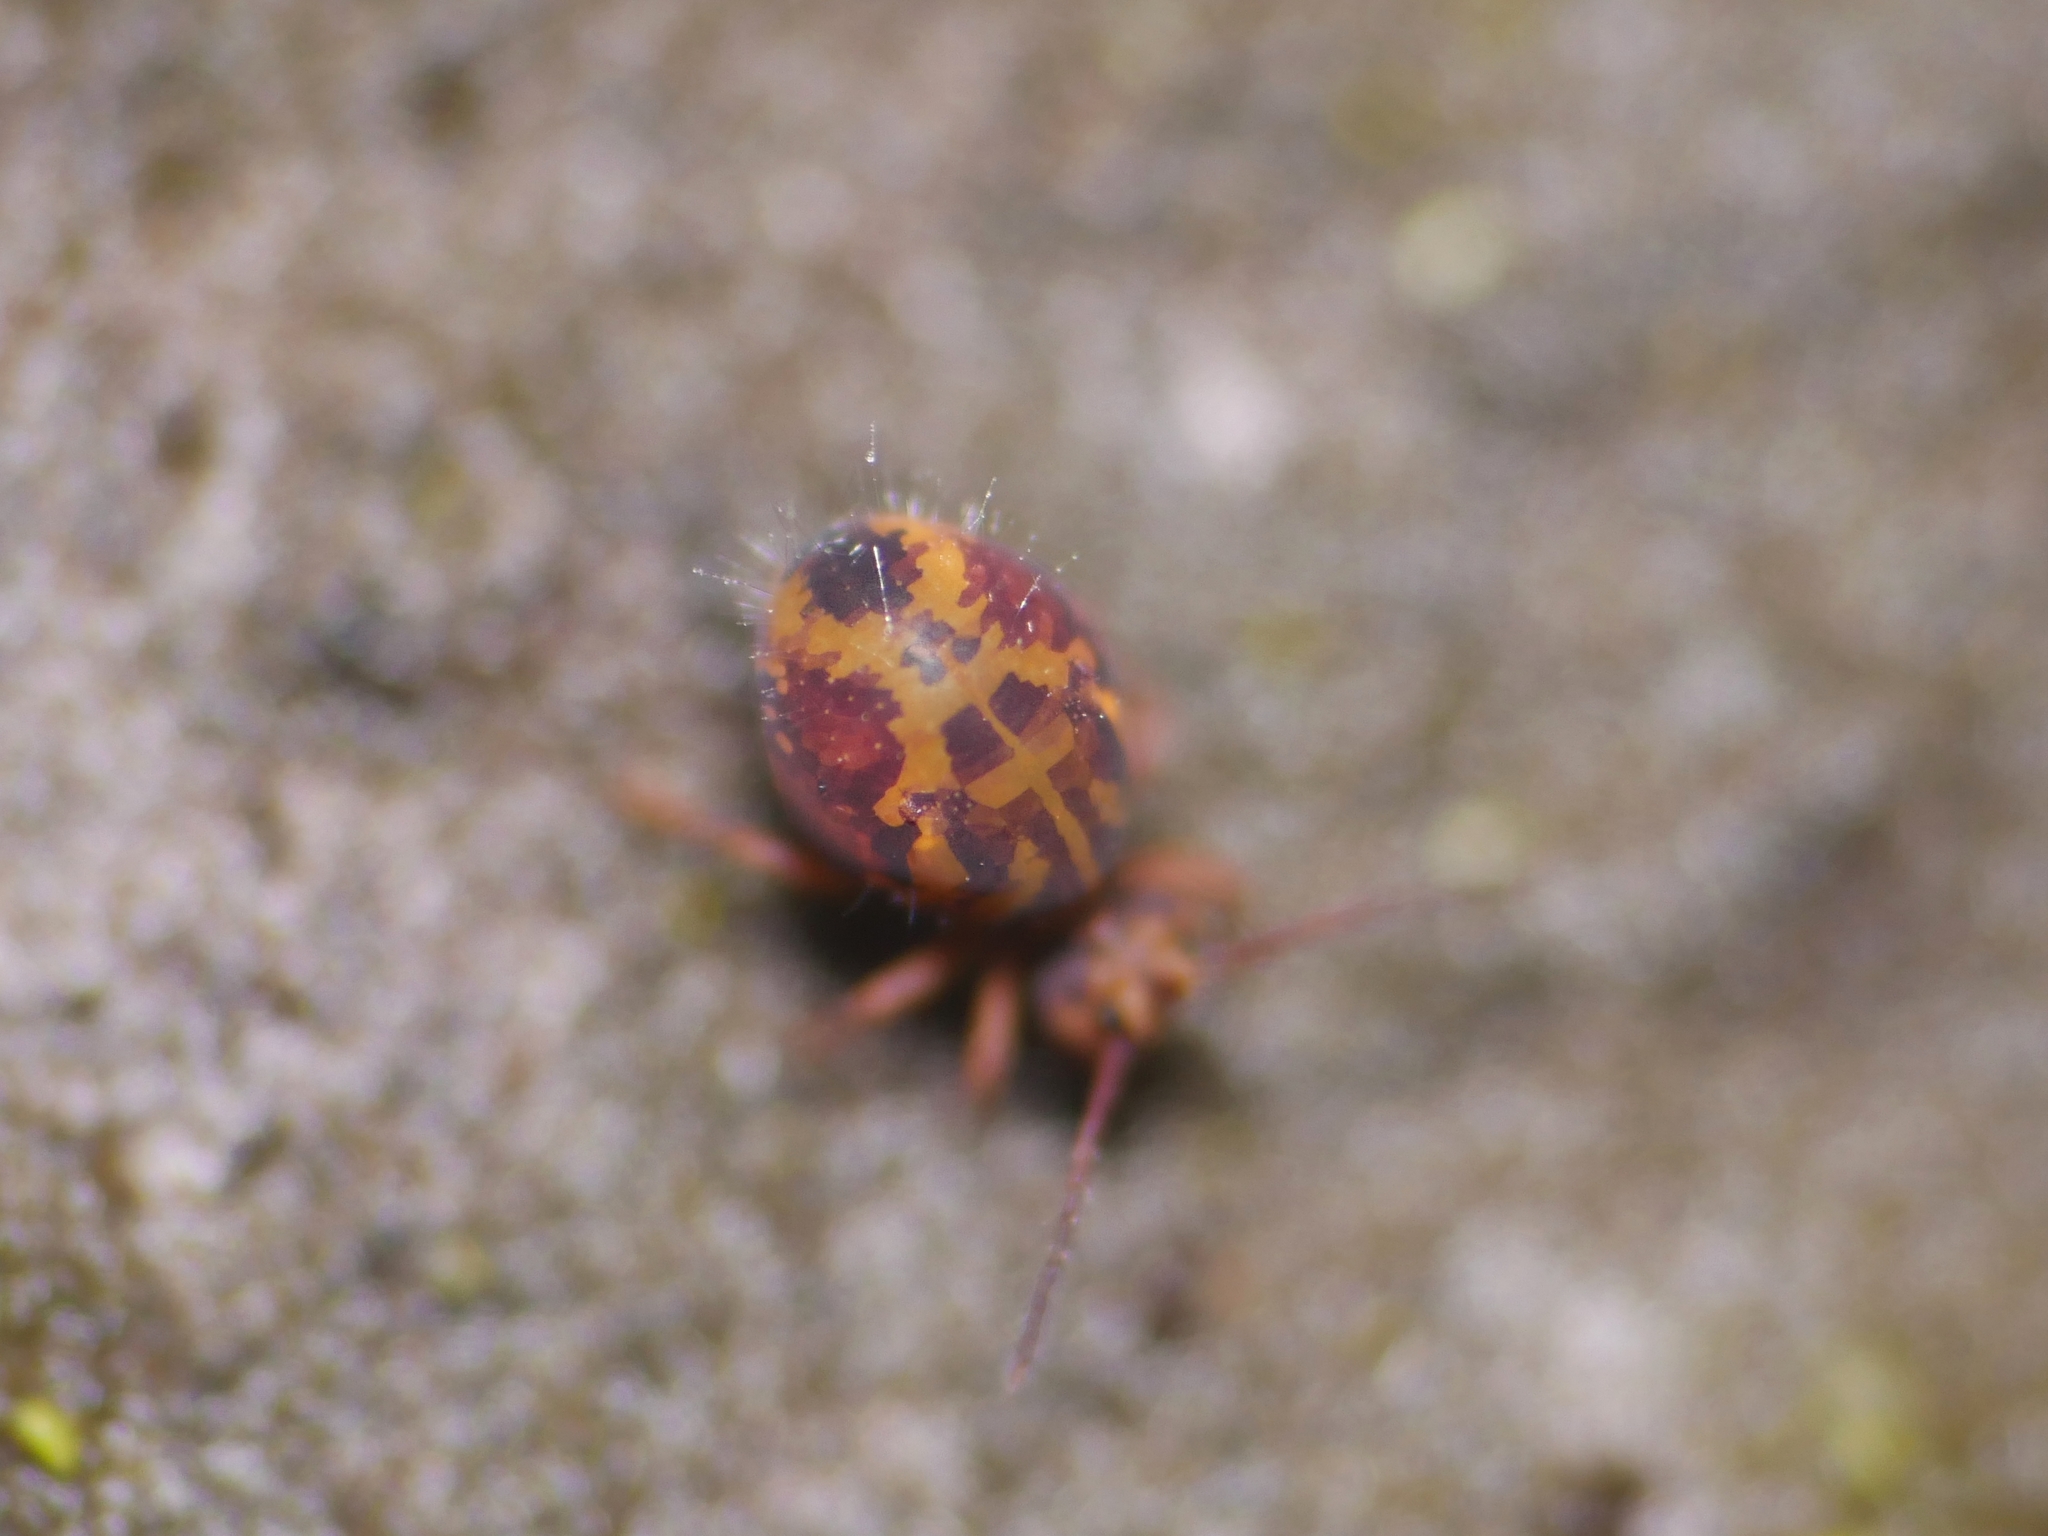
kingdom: Animalia
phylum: Arthropoda
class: Collembola
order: Symphypleona
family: Dicyrtomidae
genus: Dicyrtomina
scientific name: Dicyrtomina ornata
